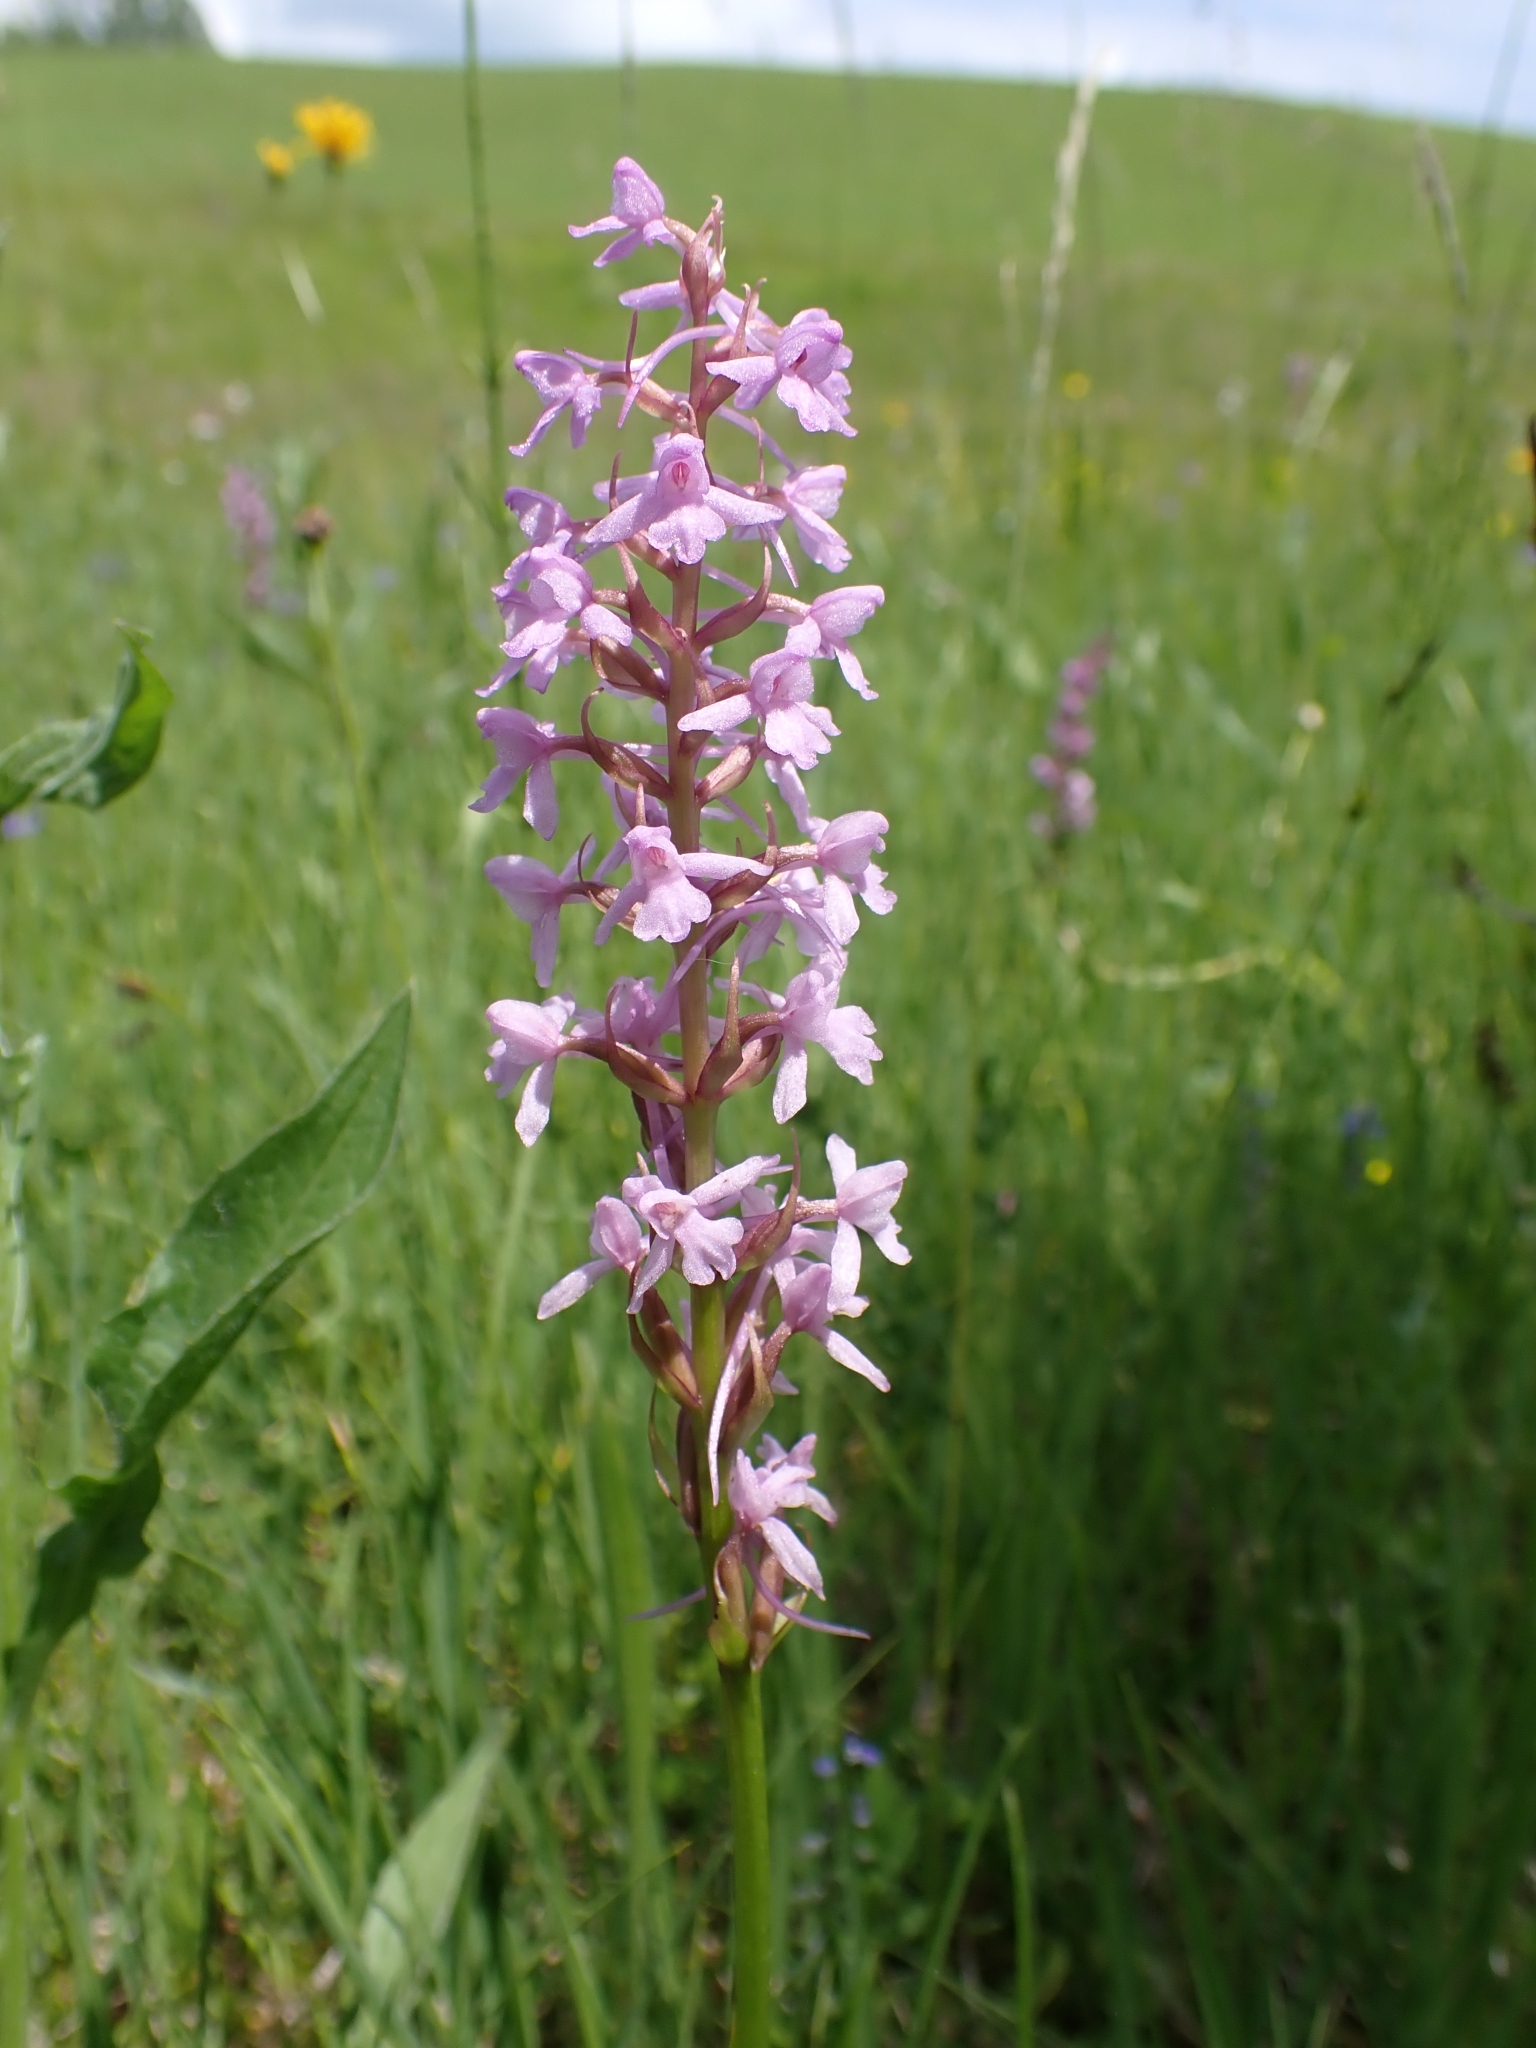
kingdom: Plantae
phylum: Tracheophyta
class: Liliopsida
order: Asparagales
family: Orchidaceae
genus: Gymnadenia
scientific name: Gymnadenia conopsea
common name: Fragrant orchid
